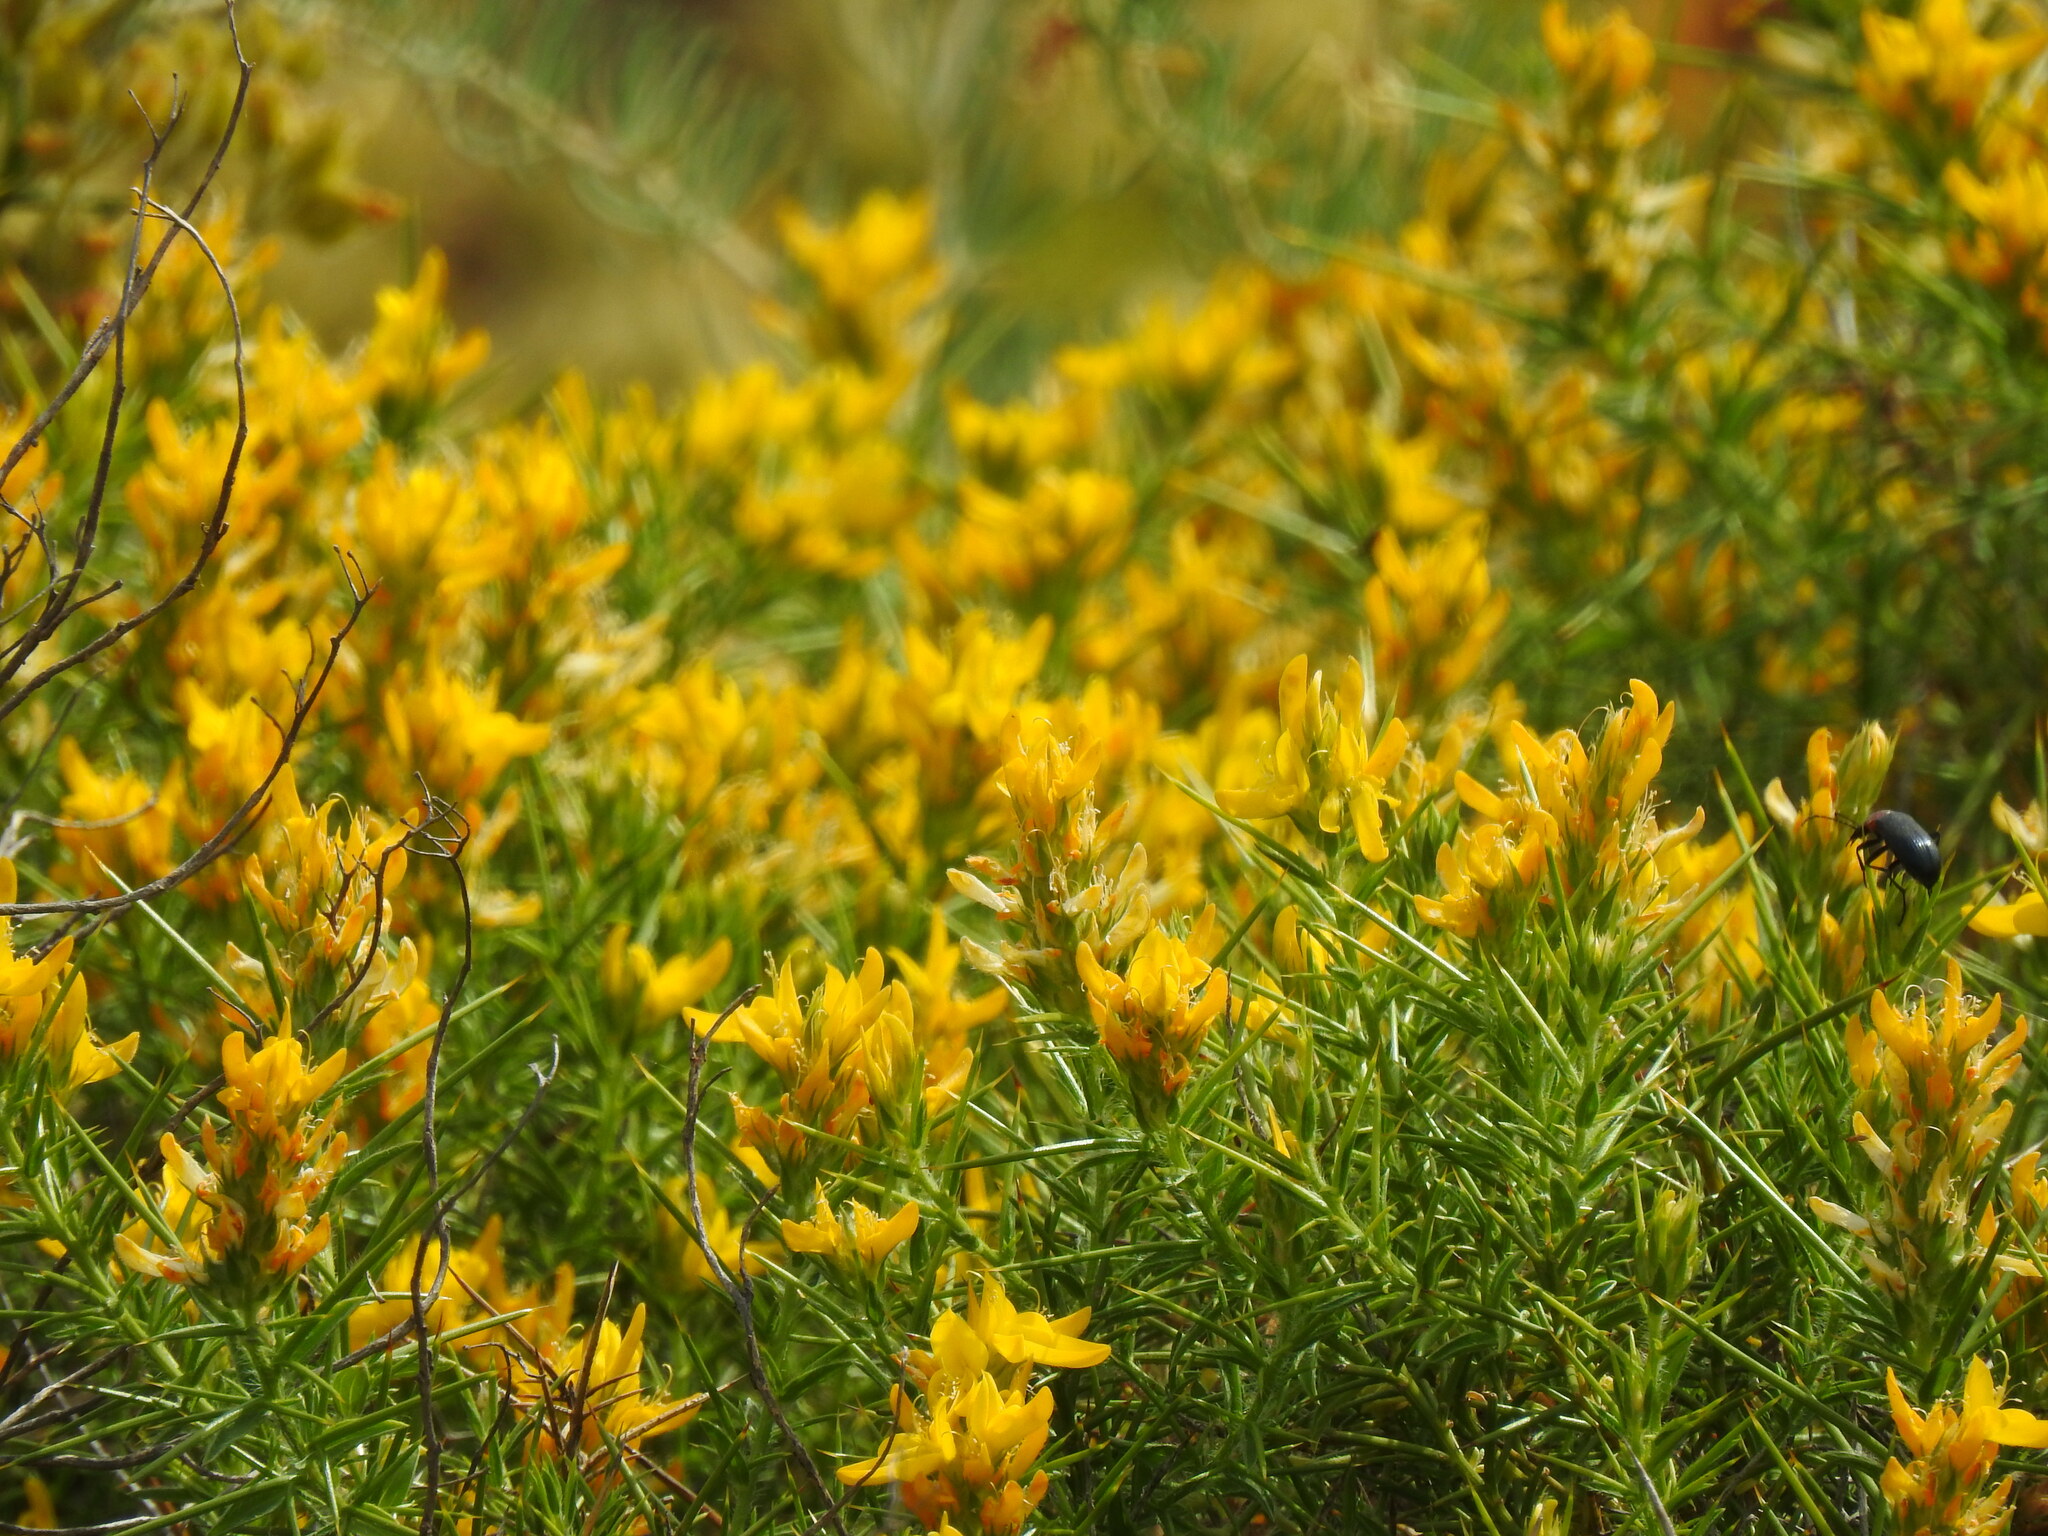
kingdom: Plantae
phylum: Tracheophyta
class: Magnoliopsida
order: Fabales
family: Fabaceae
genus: Genista
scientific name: Genista hirsuta
